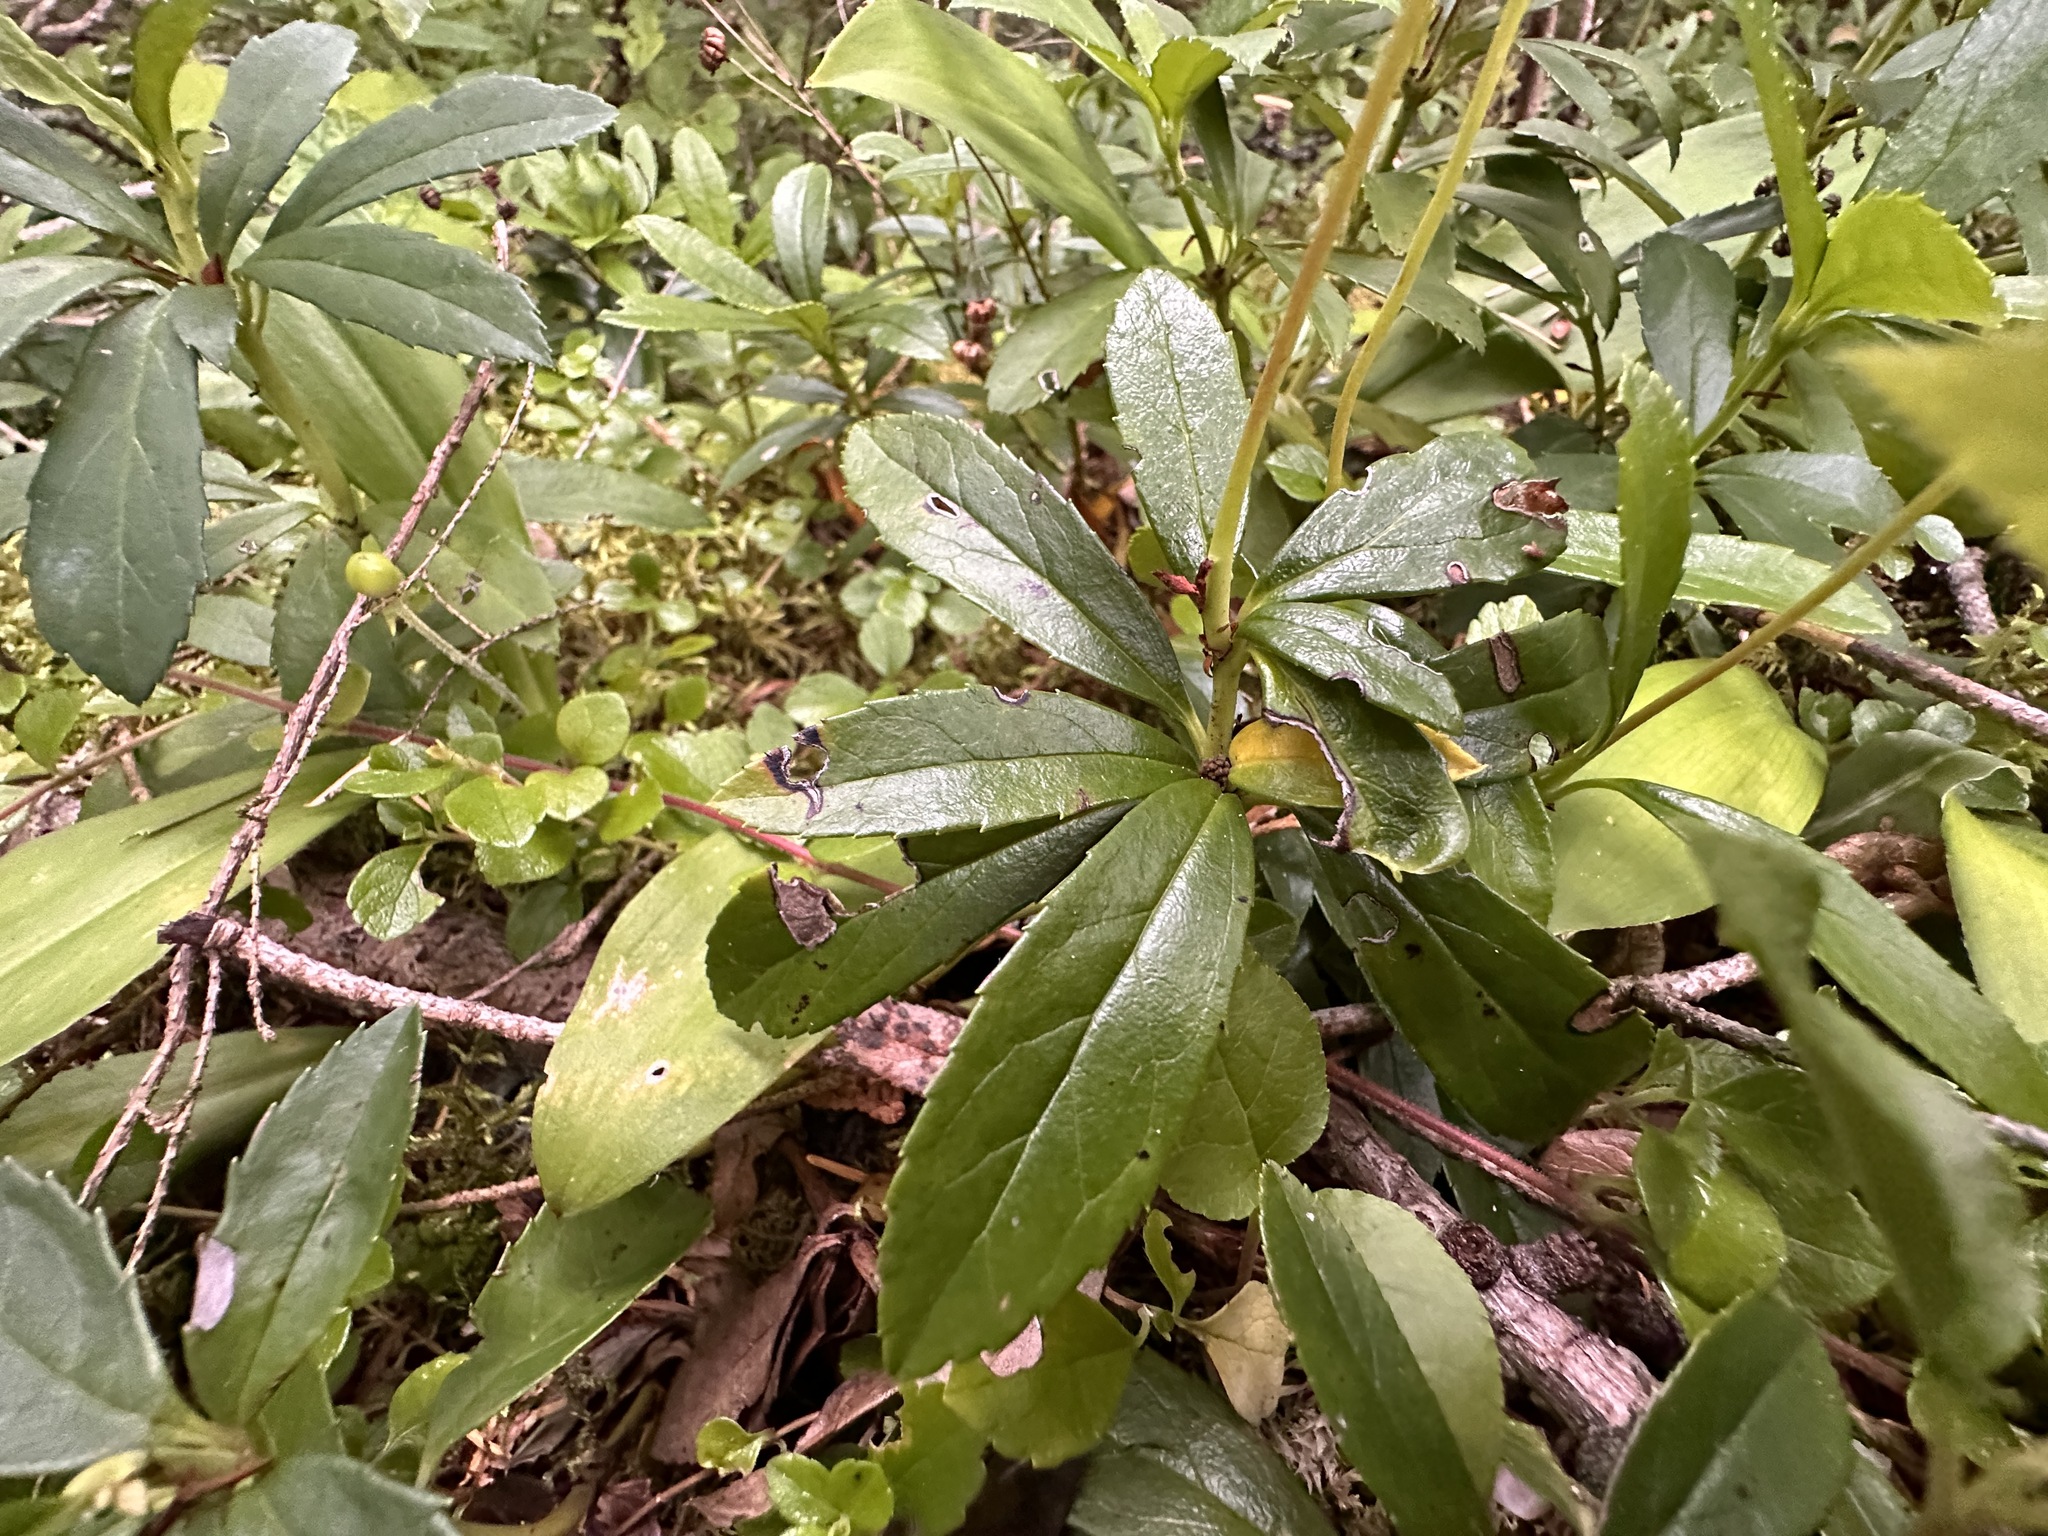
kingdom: Plantae
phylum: Tracheophyta
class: Magnoliopsida
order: Ericales
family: Ericaceae
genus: Chimaphila
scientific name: Chimaphila umbellata
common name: Pipsissewa
